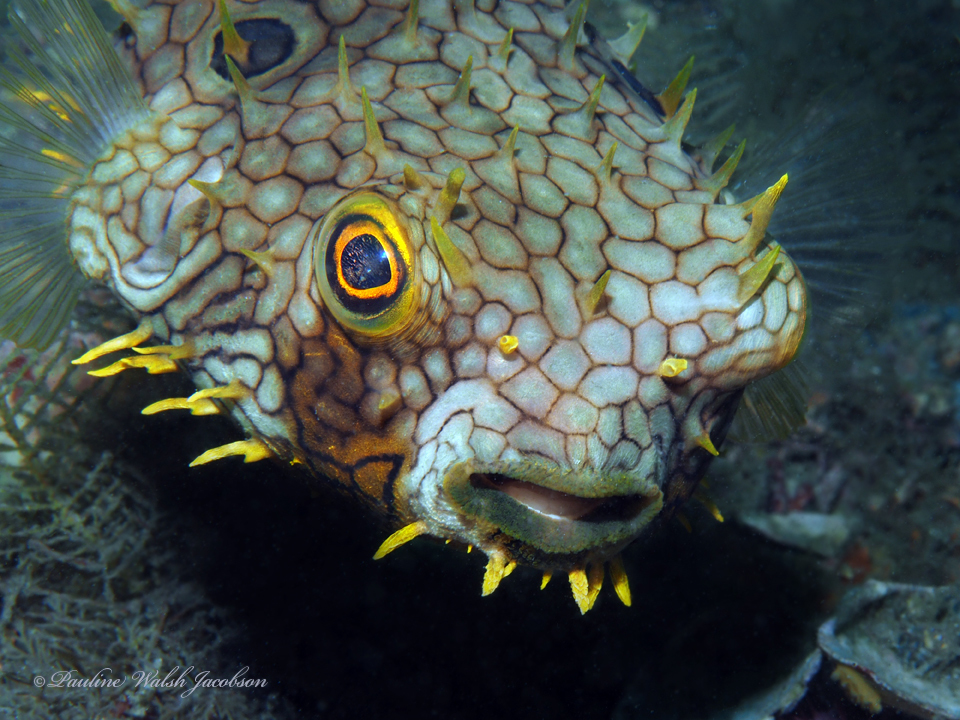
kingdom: Animalia
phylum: Chordata
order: Tetraodontiformes
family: Diodontidae
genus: Chilomycterus
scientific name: Chilomycterus antillarum
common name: Web burrfish
